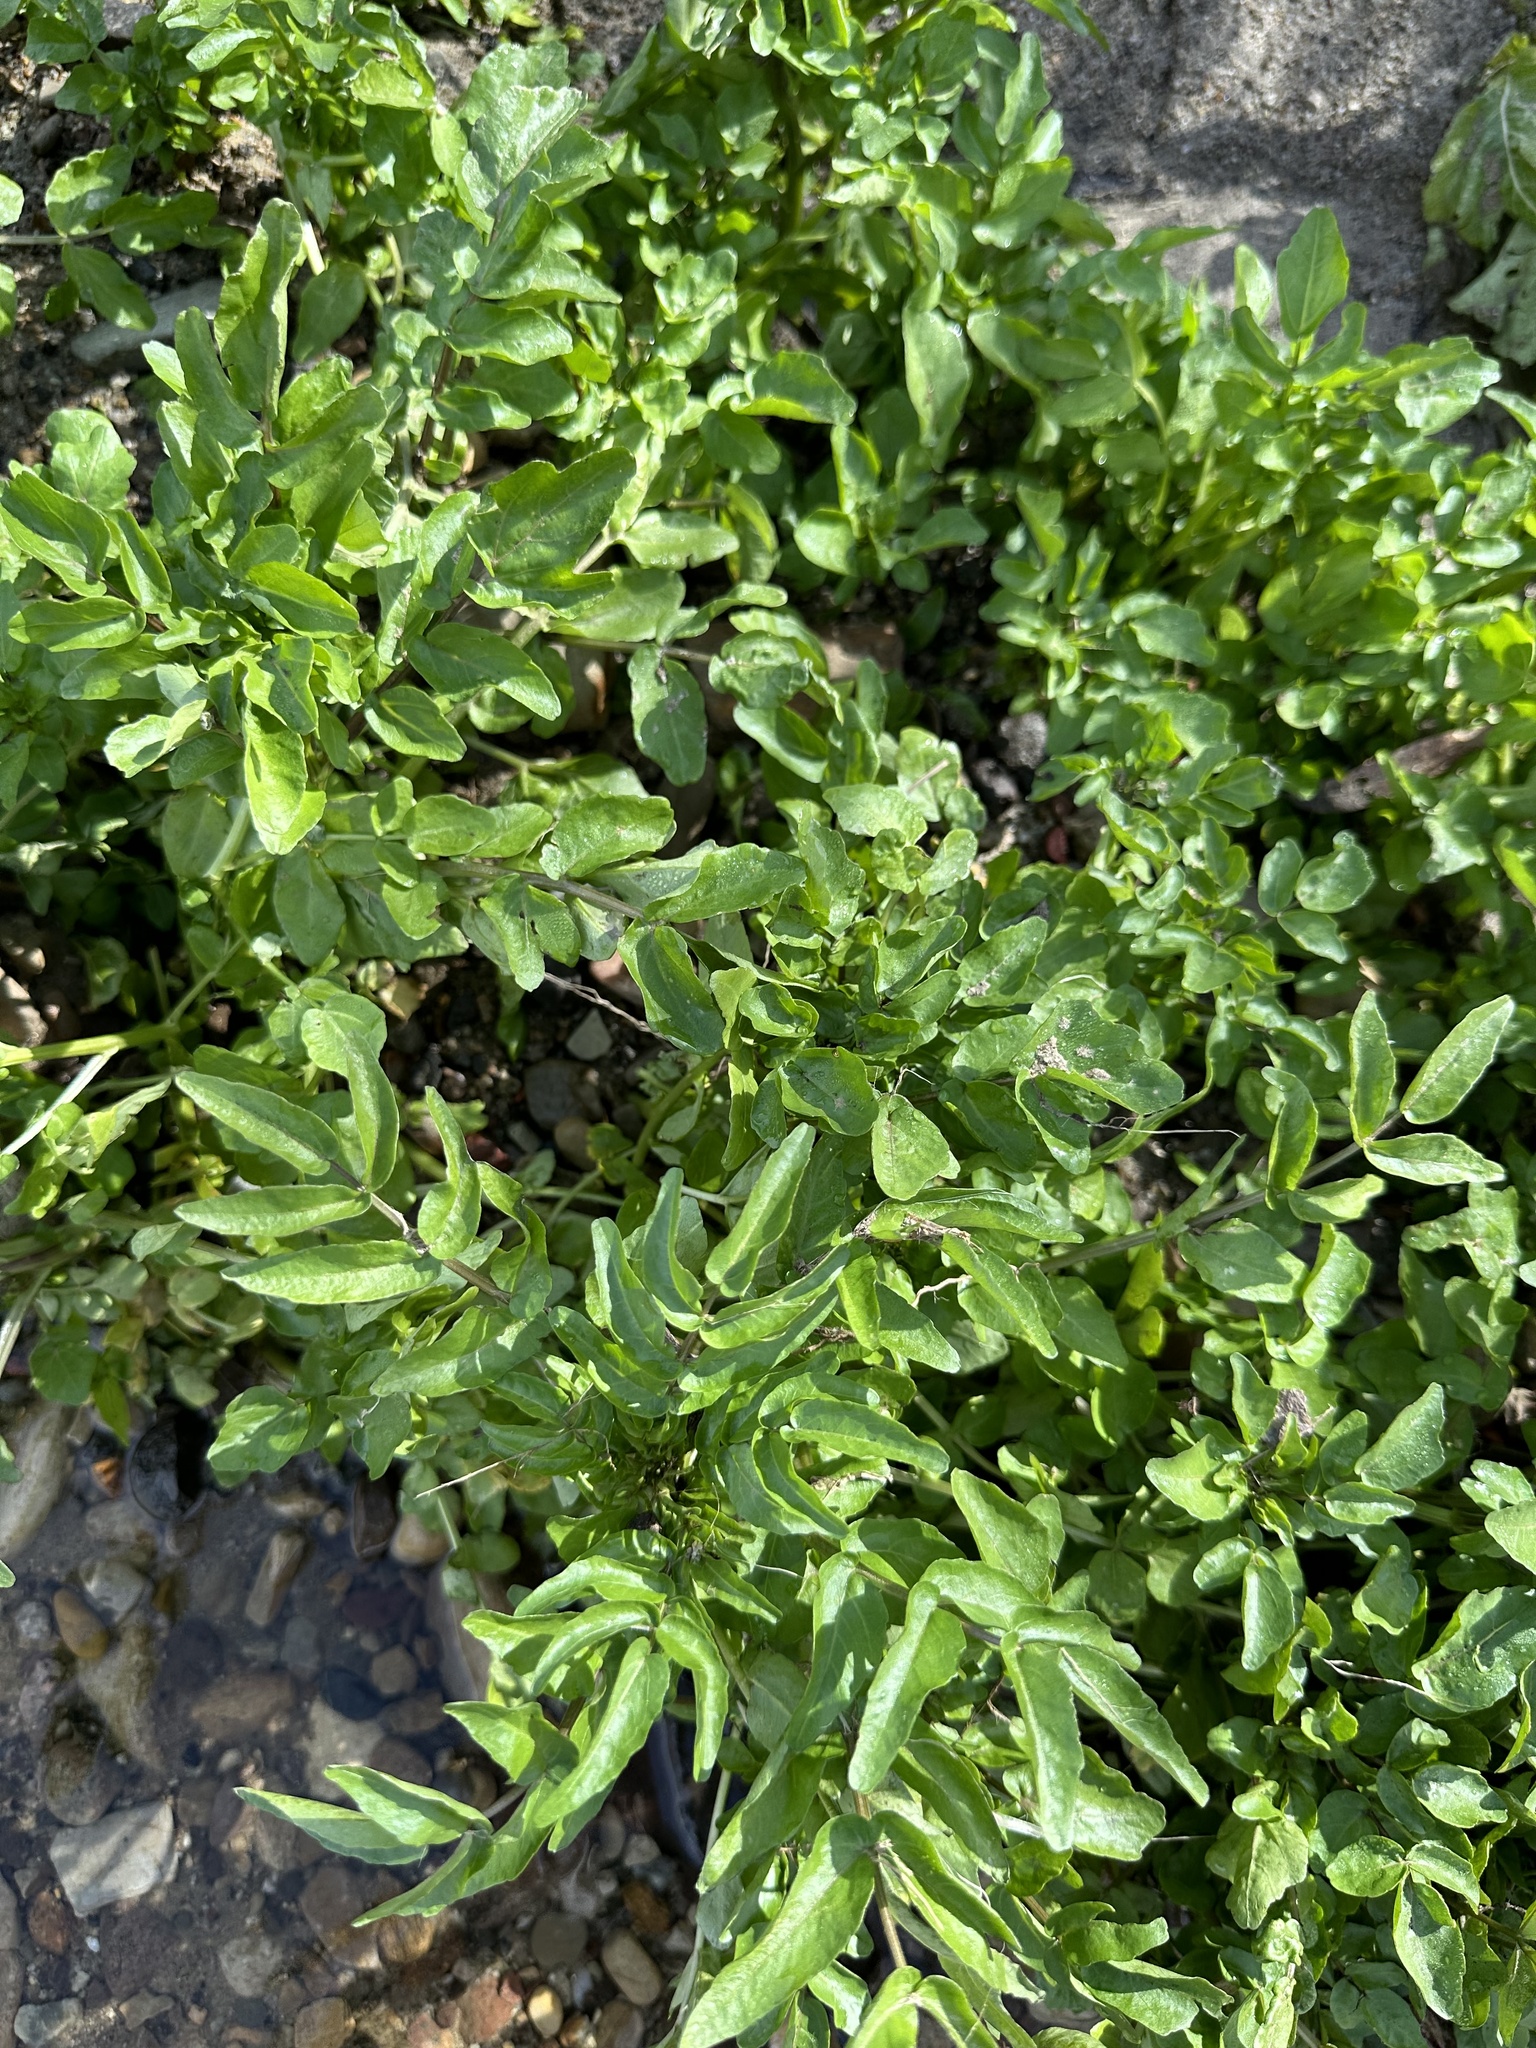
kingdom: Plantae
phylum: Tracheophyta
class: Magnoliopsida
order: Brassicales
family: Brassicaceae
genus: Nasturtium
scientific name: Nasturtium officinale
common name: Watercress
